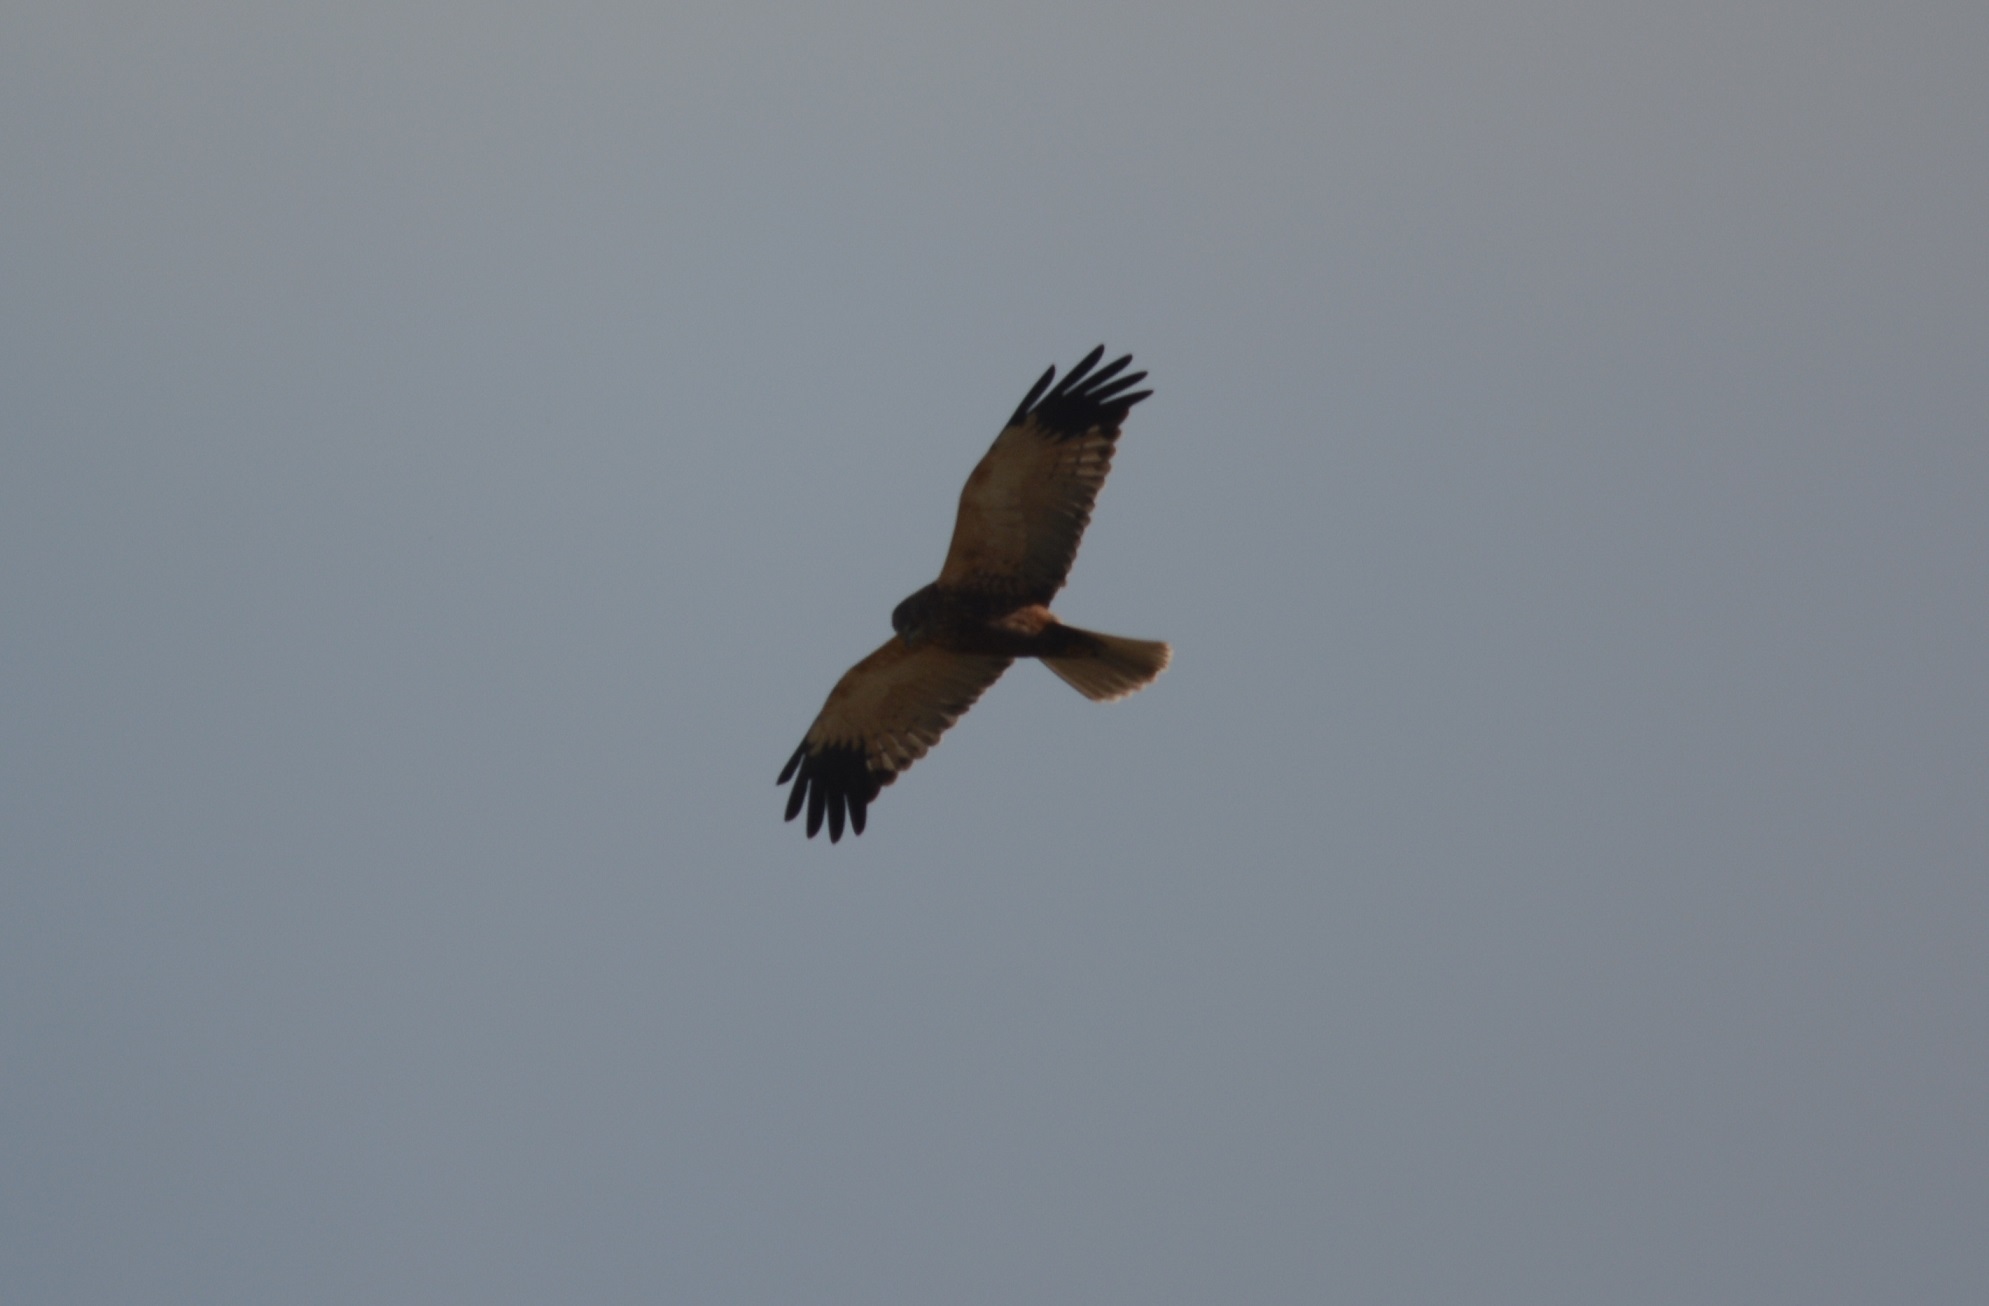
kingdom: Animalia
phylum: Chordata
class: Aves
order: Accipitriformes
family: Accipitridae
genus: Circus
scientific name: Circus aeruginosus
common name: Western marsh harrier
